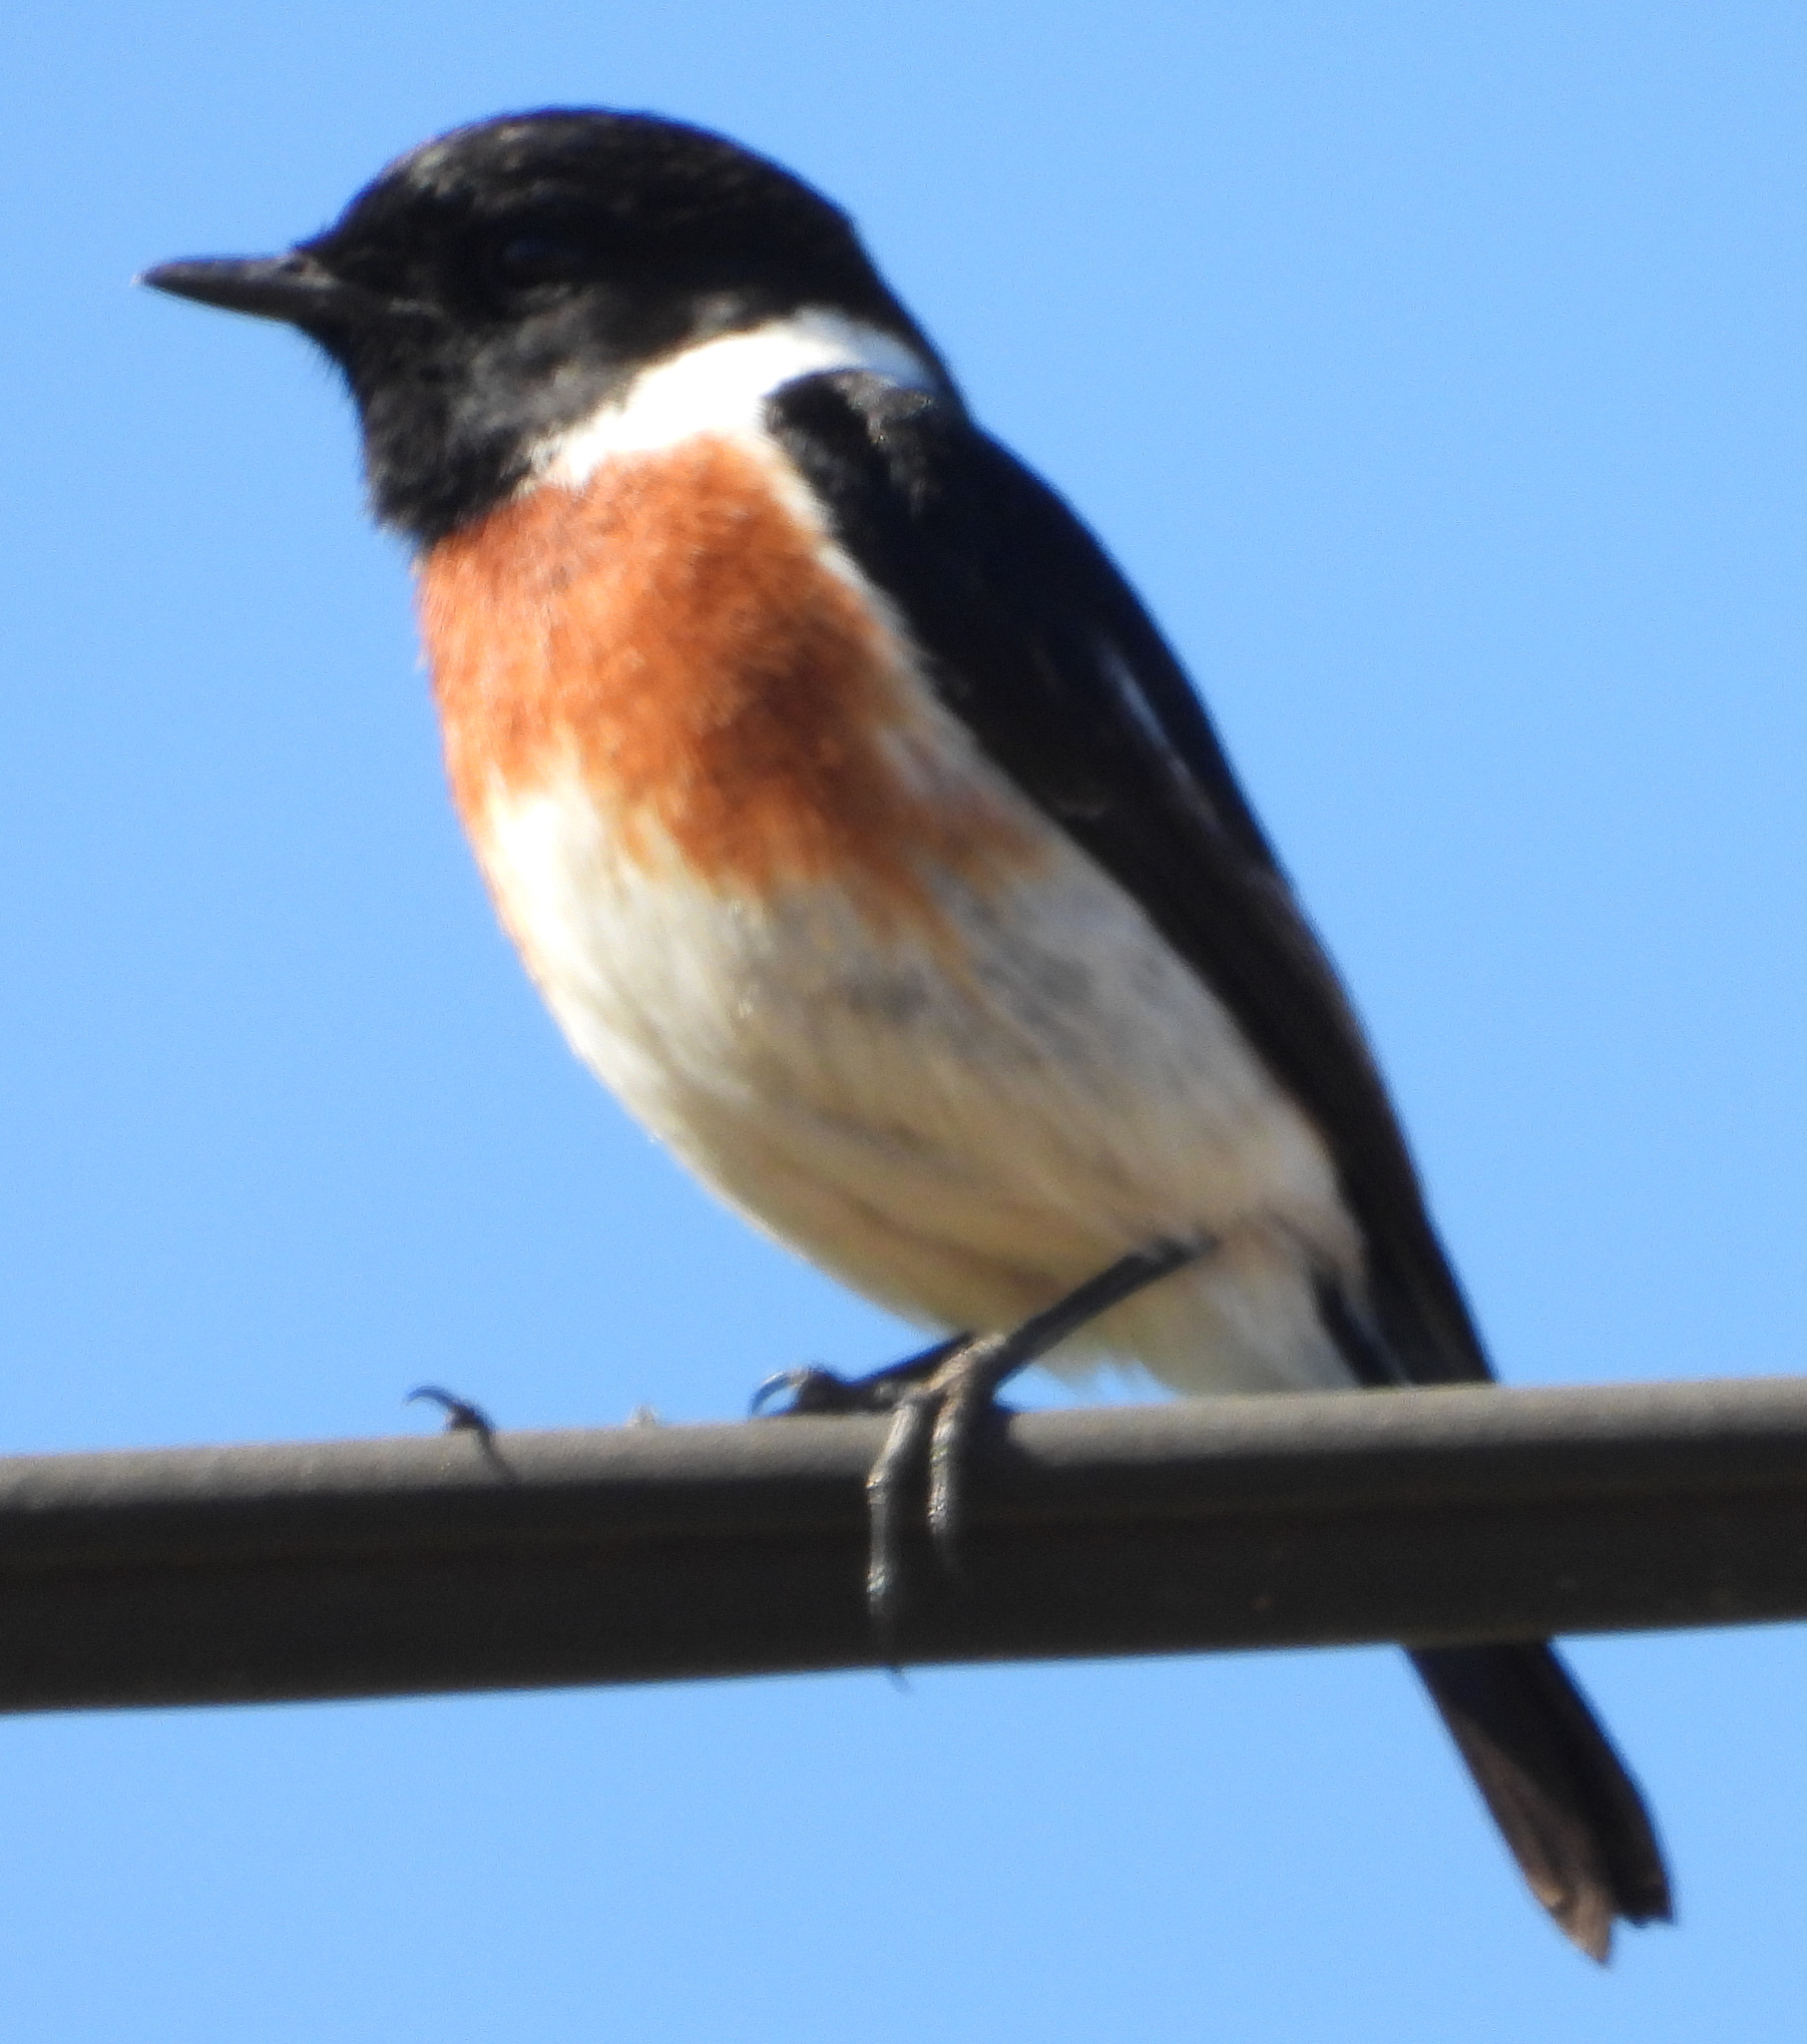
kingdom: Animalia
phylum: Chordata
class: Aves
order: Passeriformes
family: Muscicapidae
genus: Saxicola
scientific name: Saxicola torquatus
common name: African stonechat
